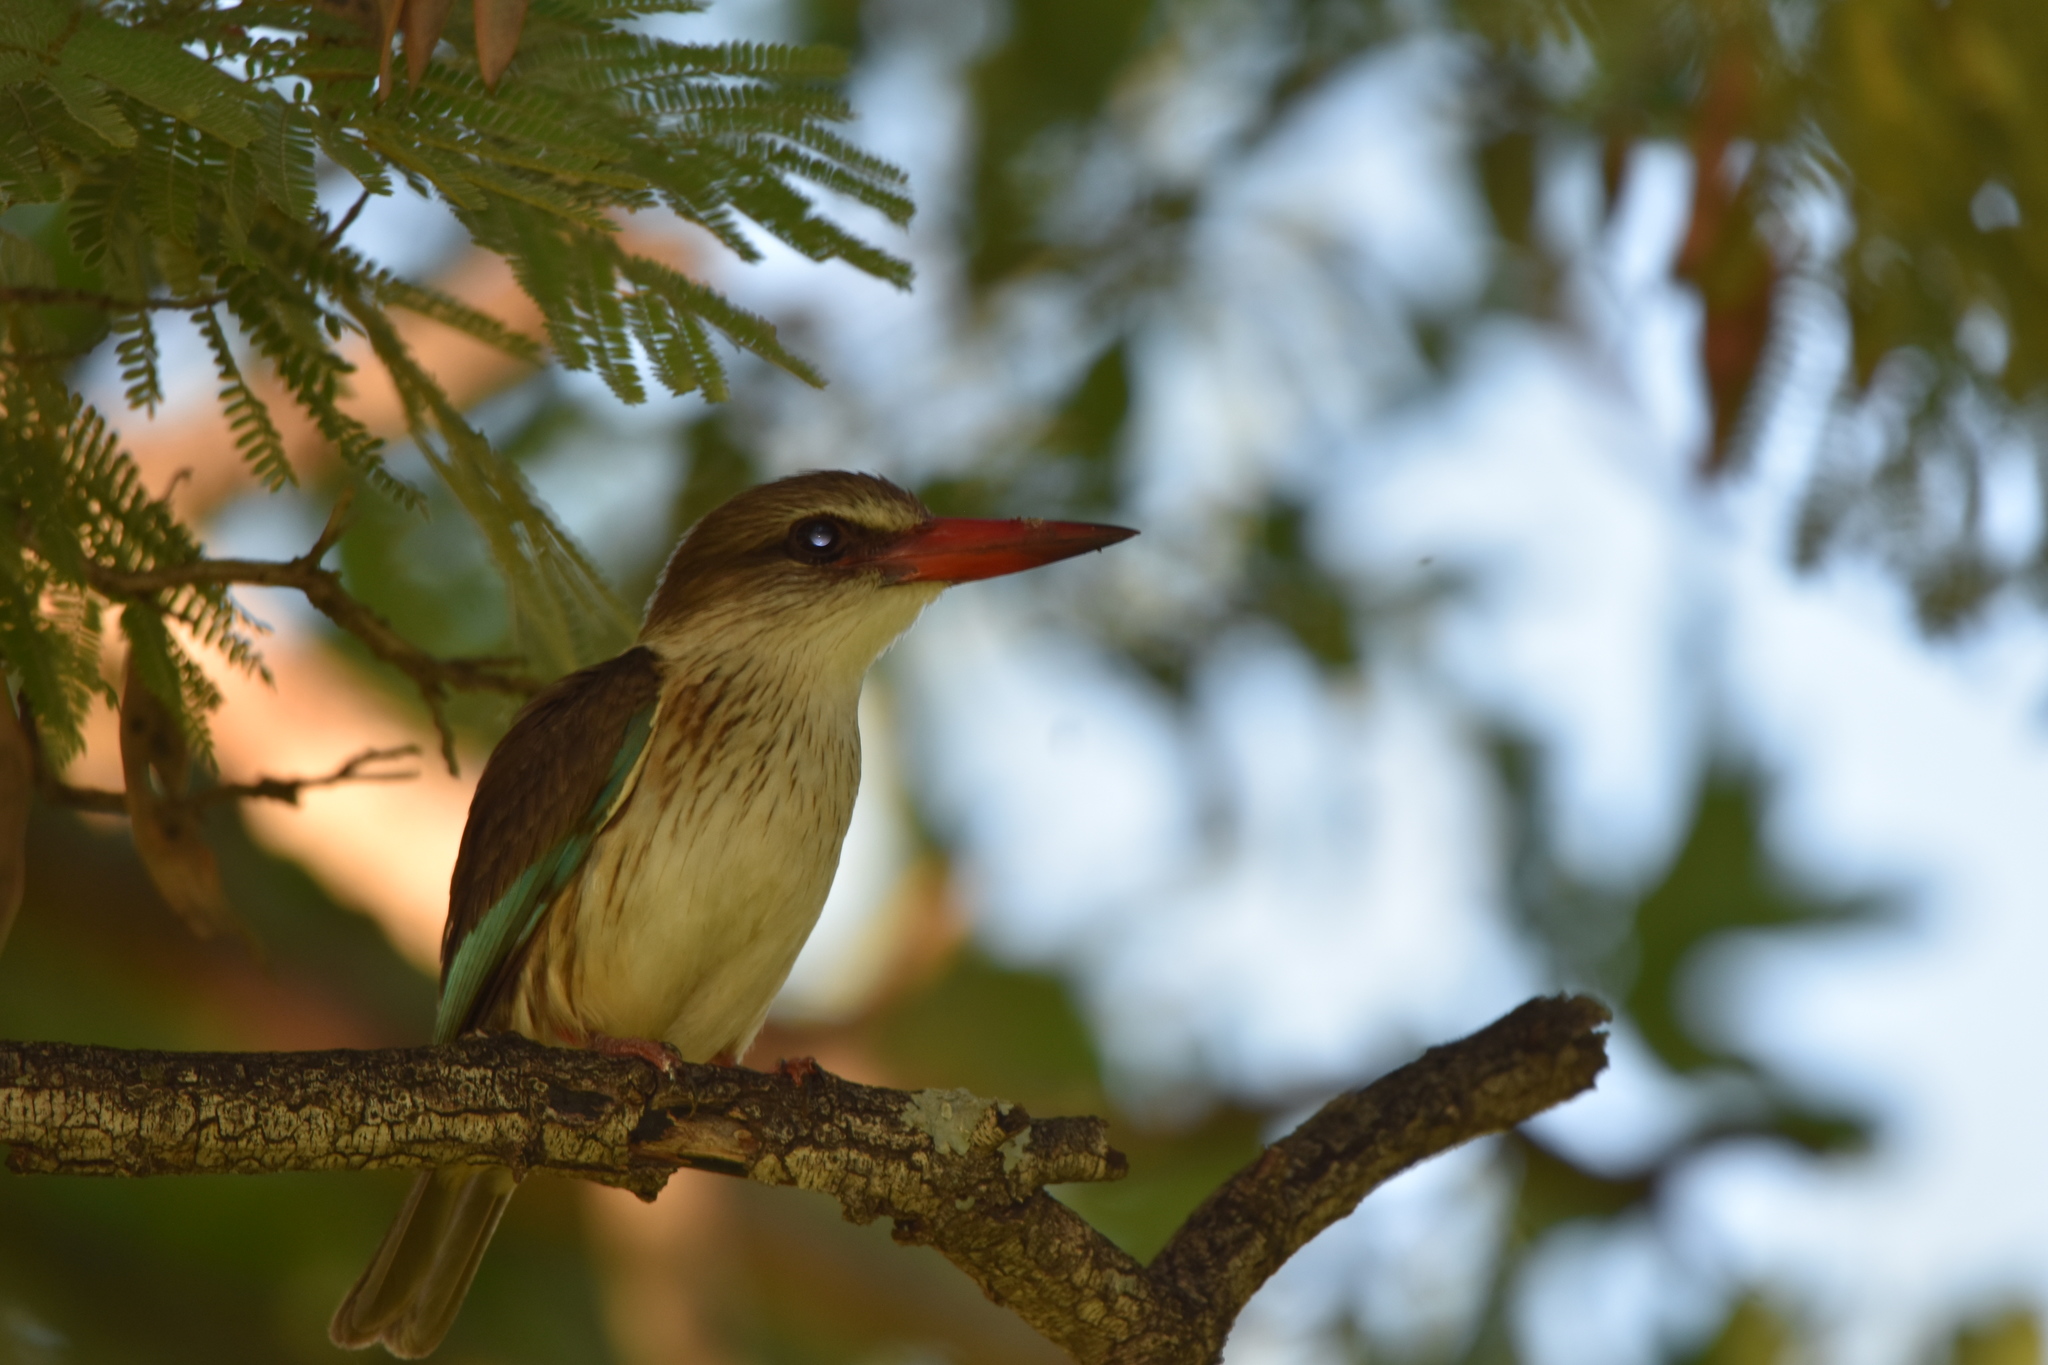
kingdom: Animalia
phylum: Chordata
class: Aves
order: Coraciiformes
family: Alcedinidae
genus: Halcyon
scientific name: Halcyon albiventris
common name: Brown-hooded kingfisher
